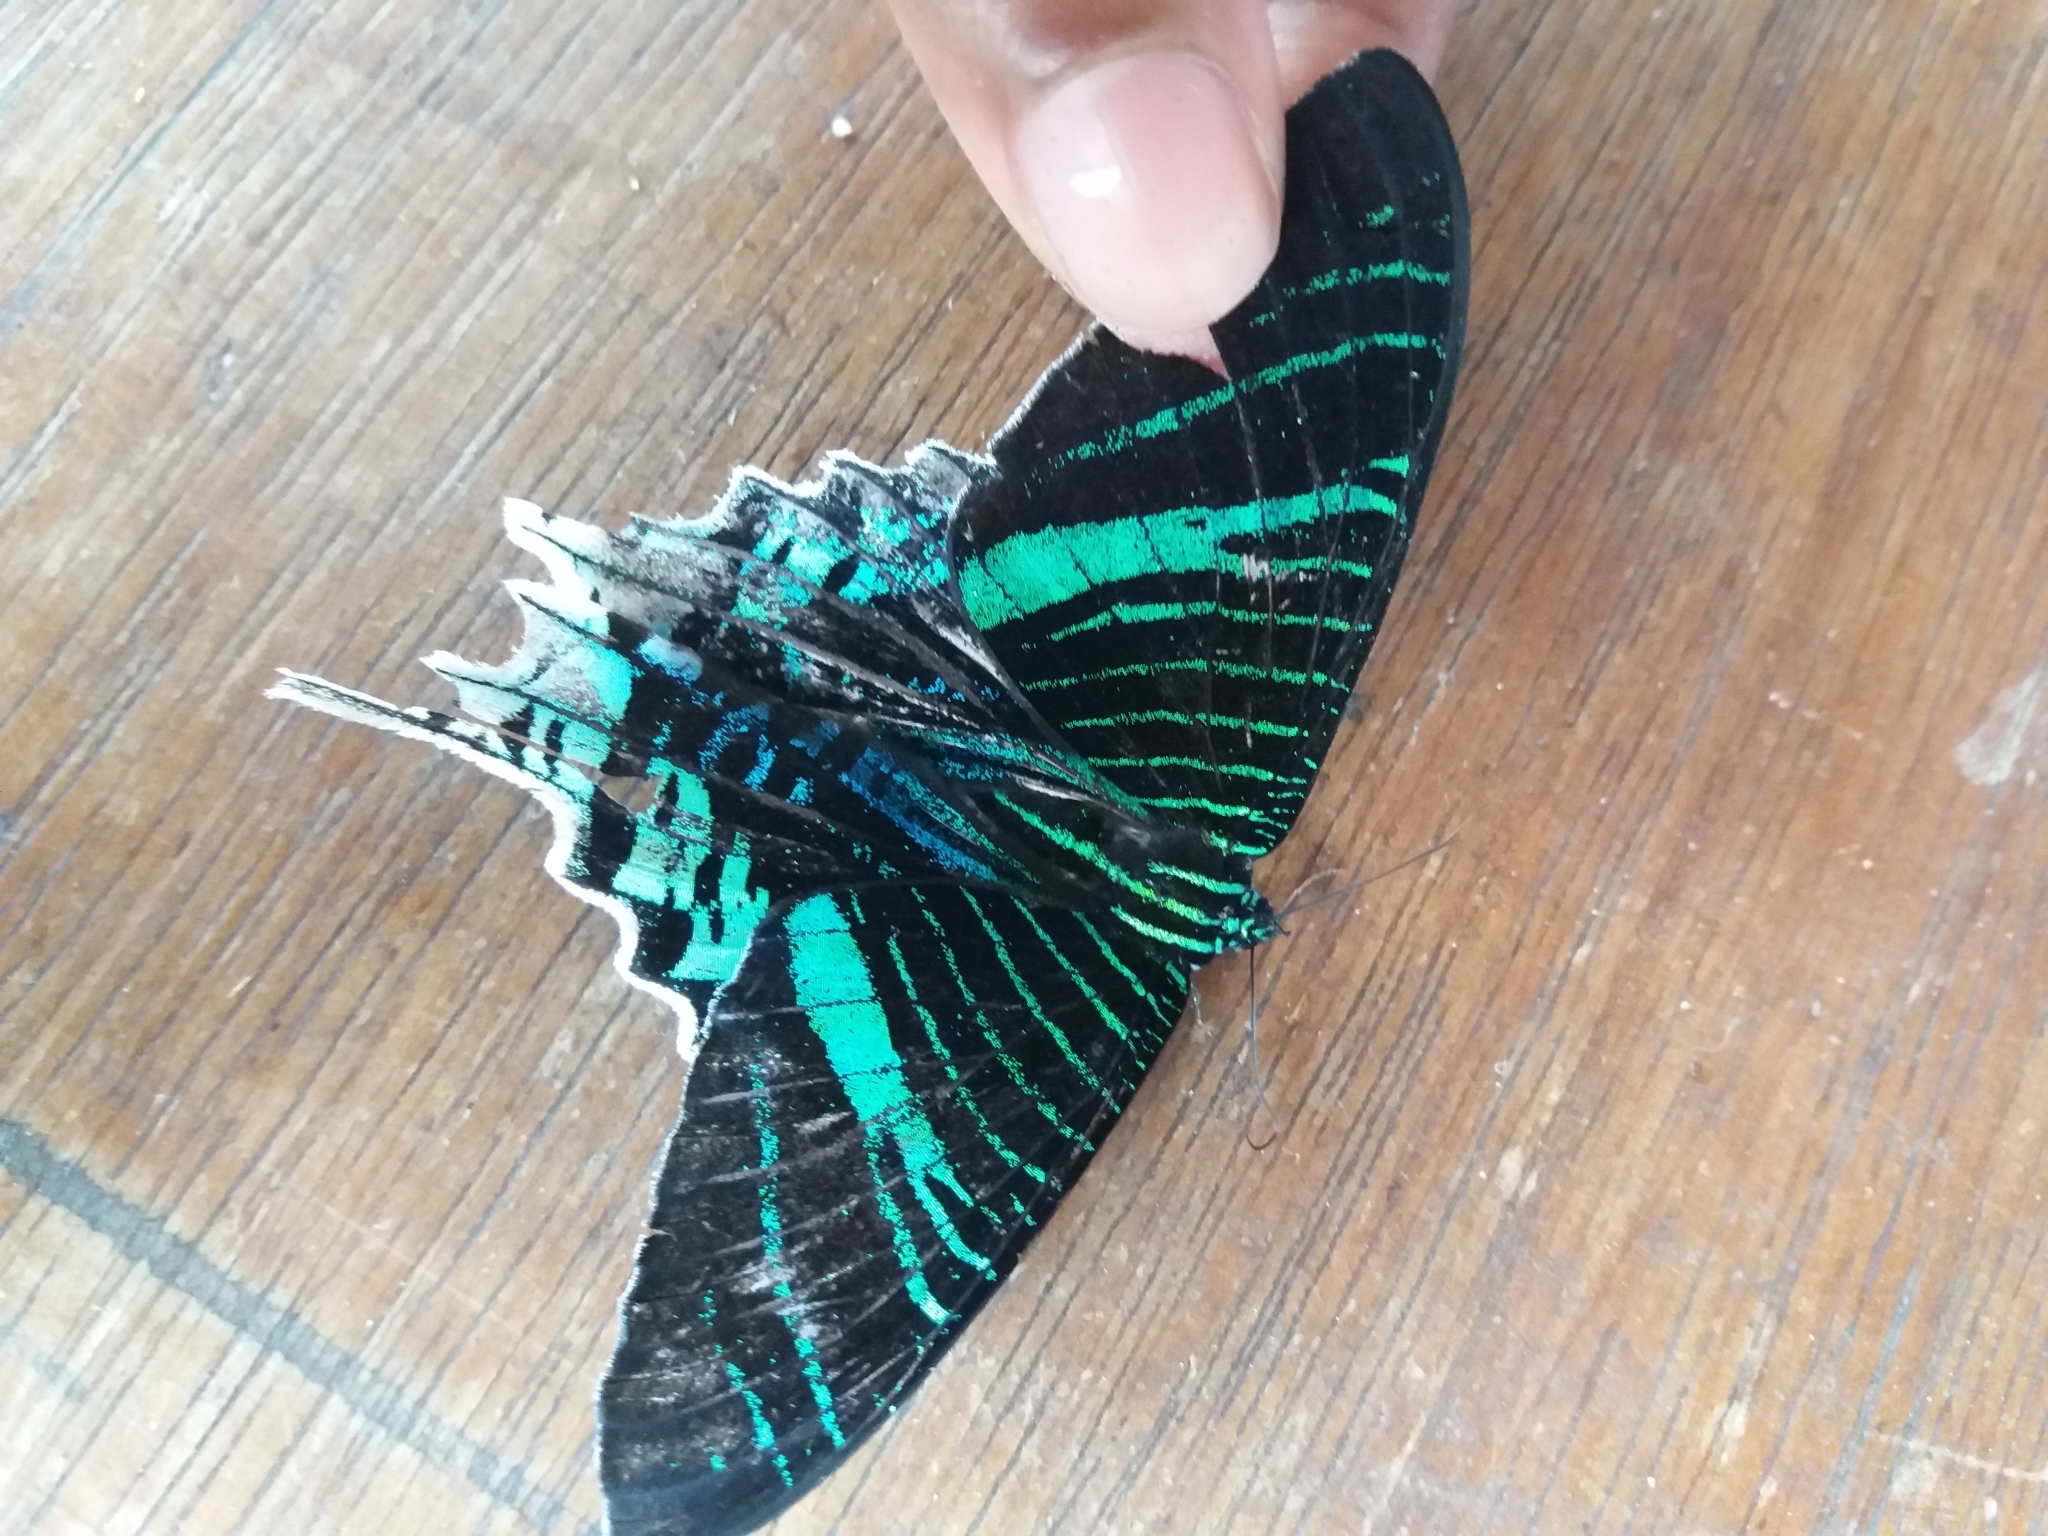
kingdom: Animalia
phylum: Arthropoda
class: Insecta
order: Lepidoptera
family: Uraniidae
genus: Urania
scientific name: Urania leilus
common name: Peacock moth
